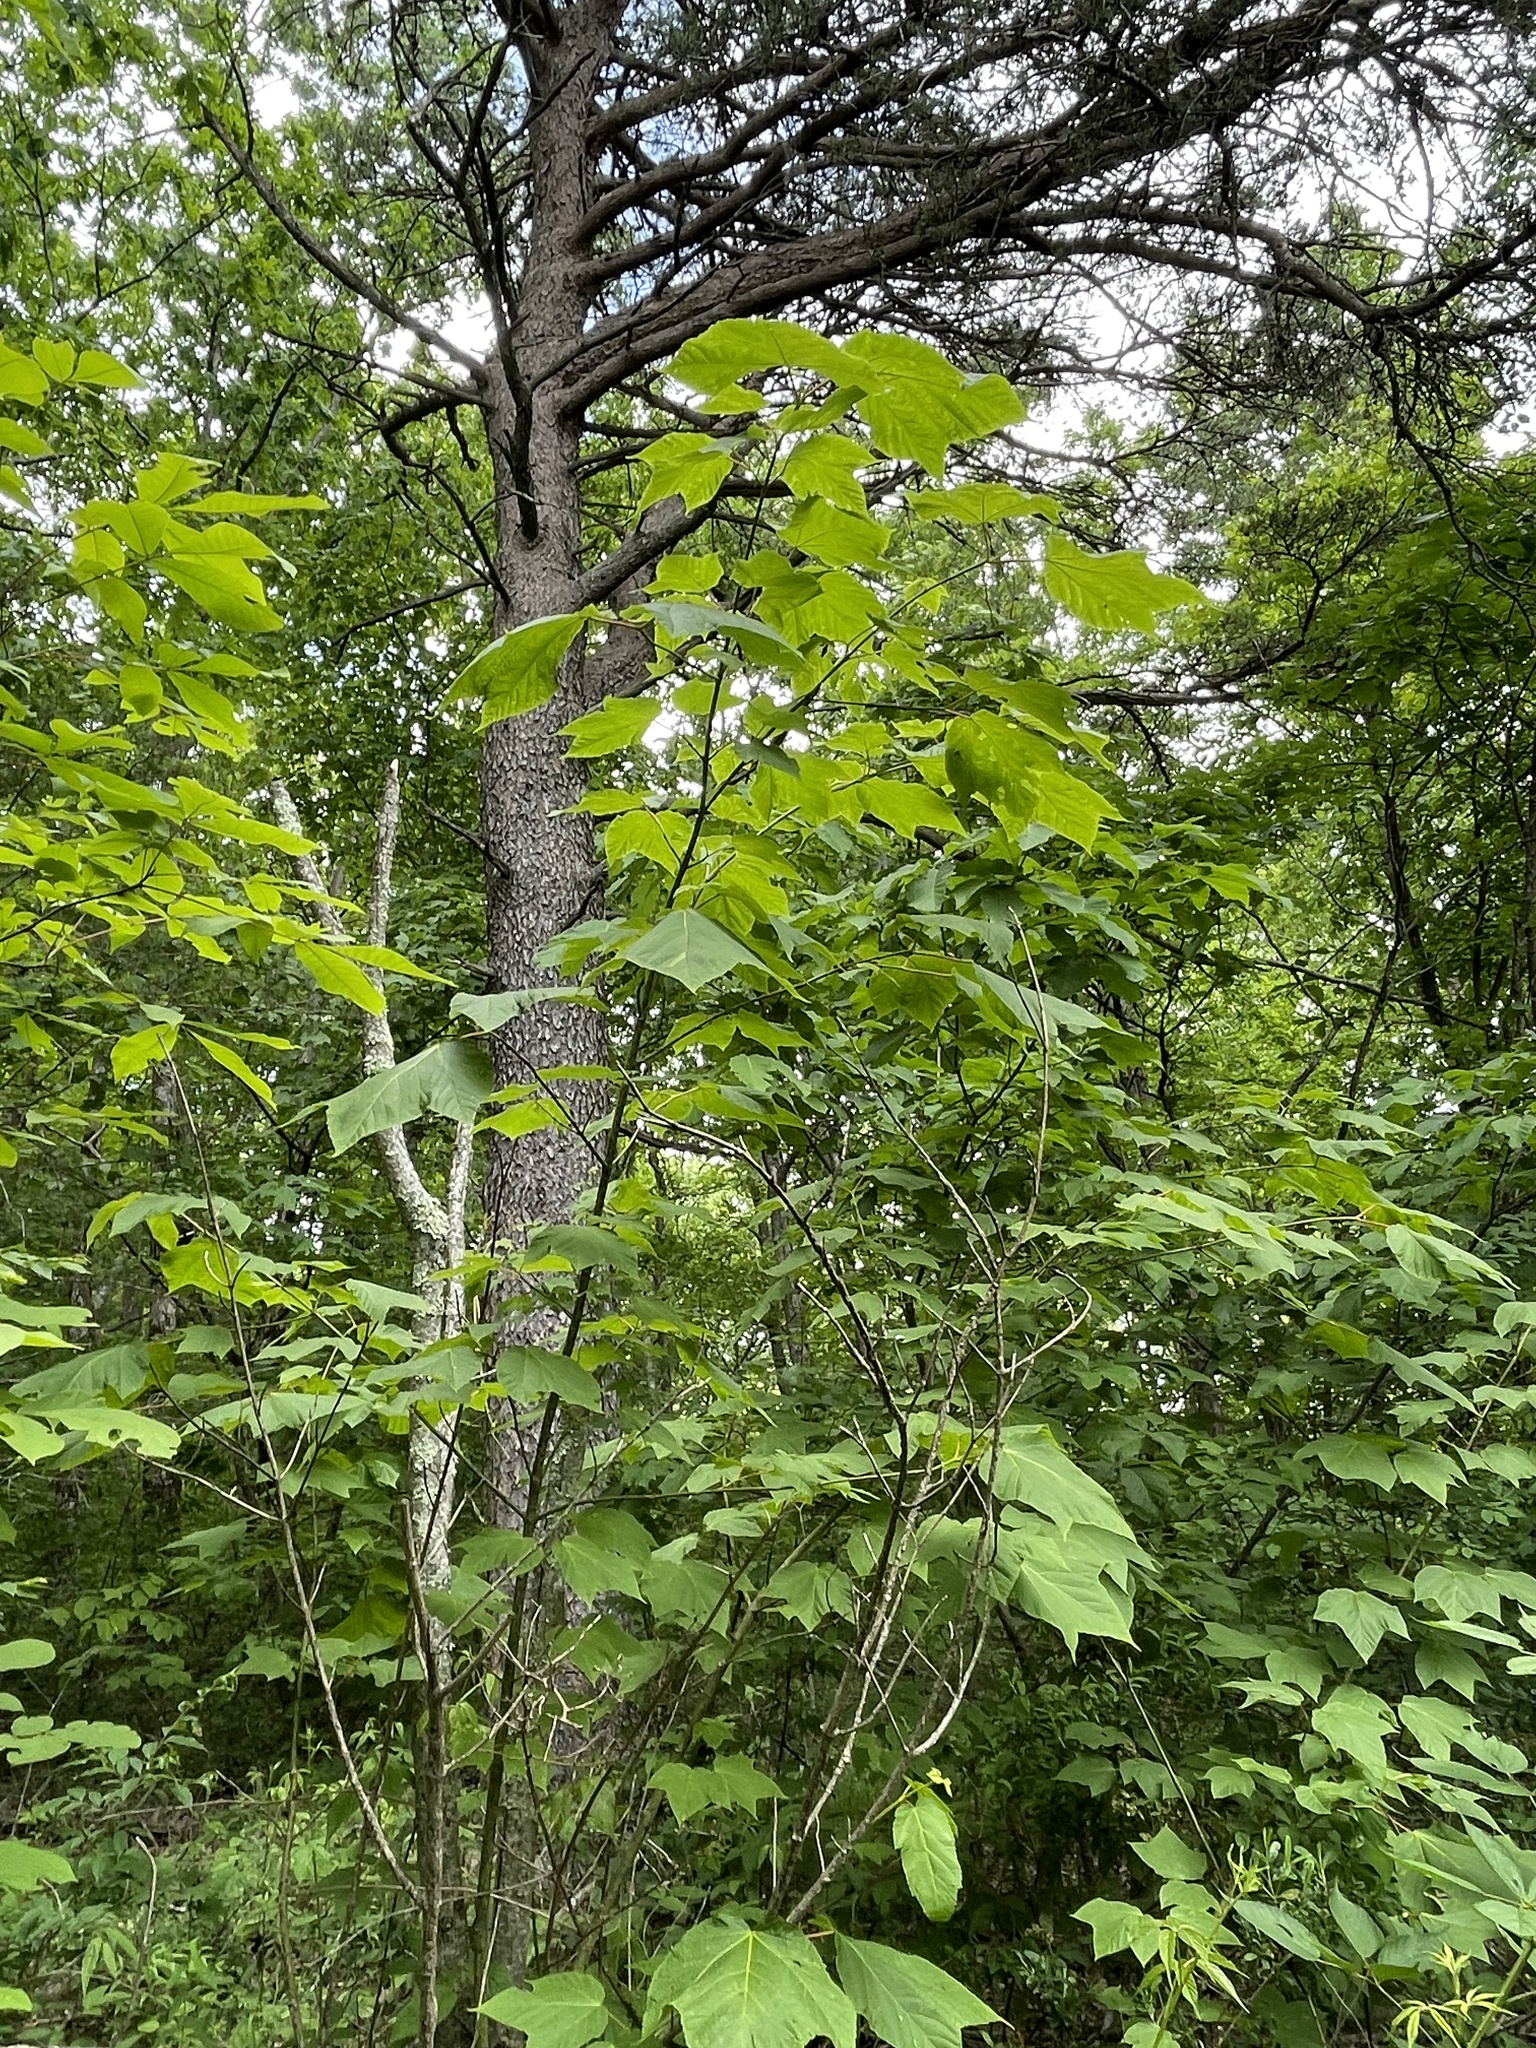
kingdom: Plantae
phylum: Tracheophyta
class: Magnoliopsida
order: Sapindales
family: Sapindaceae
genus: Acer
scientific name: Acer pensylvanicum
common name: Moosewood
